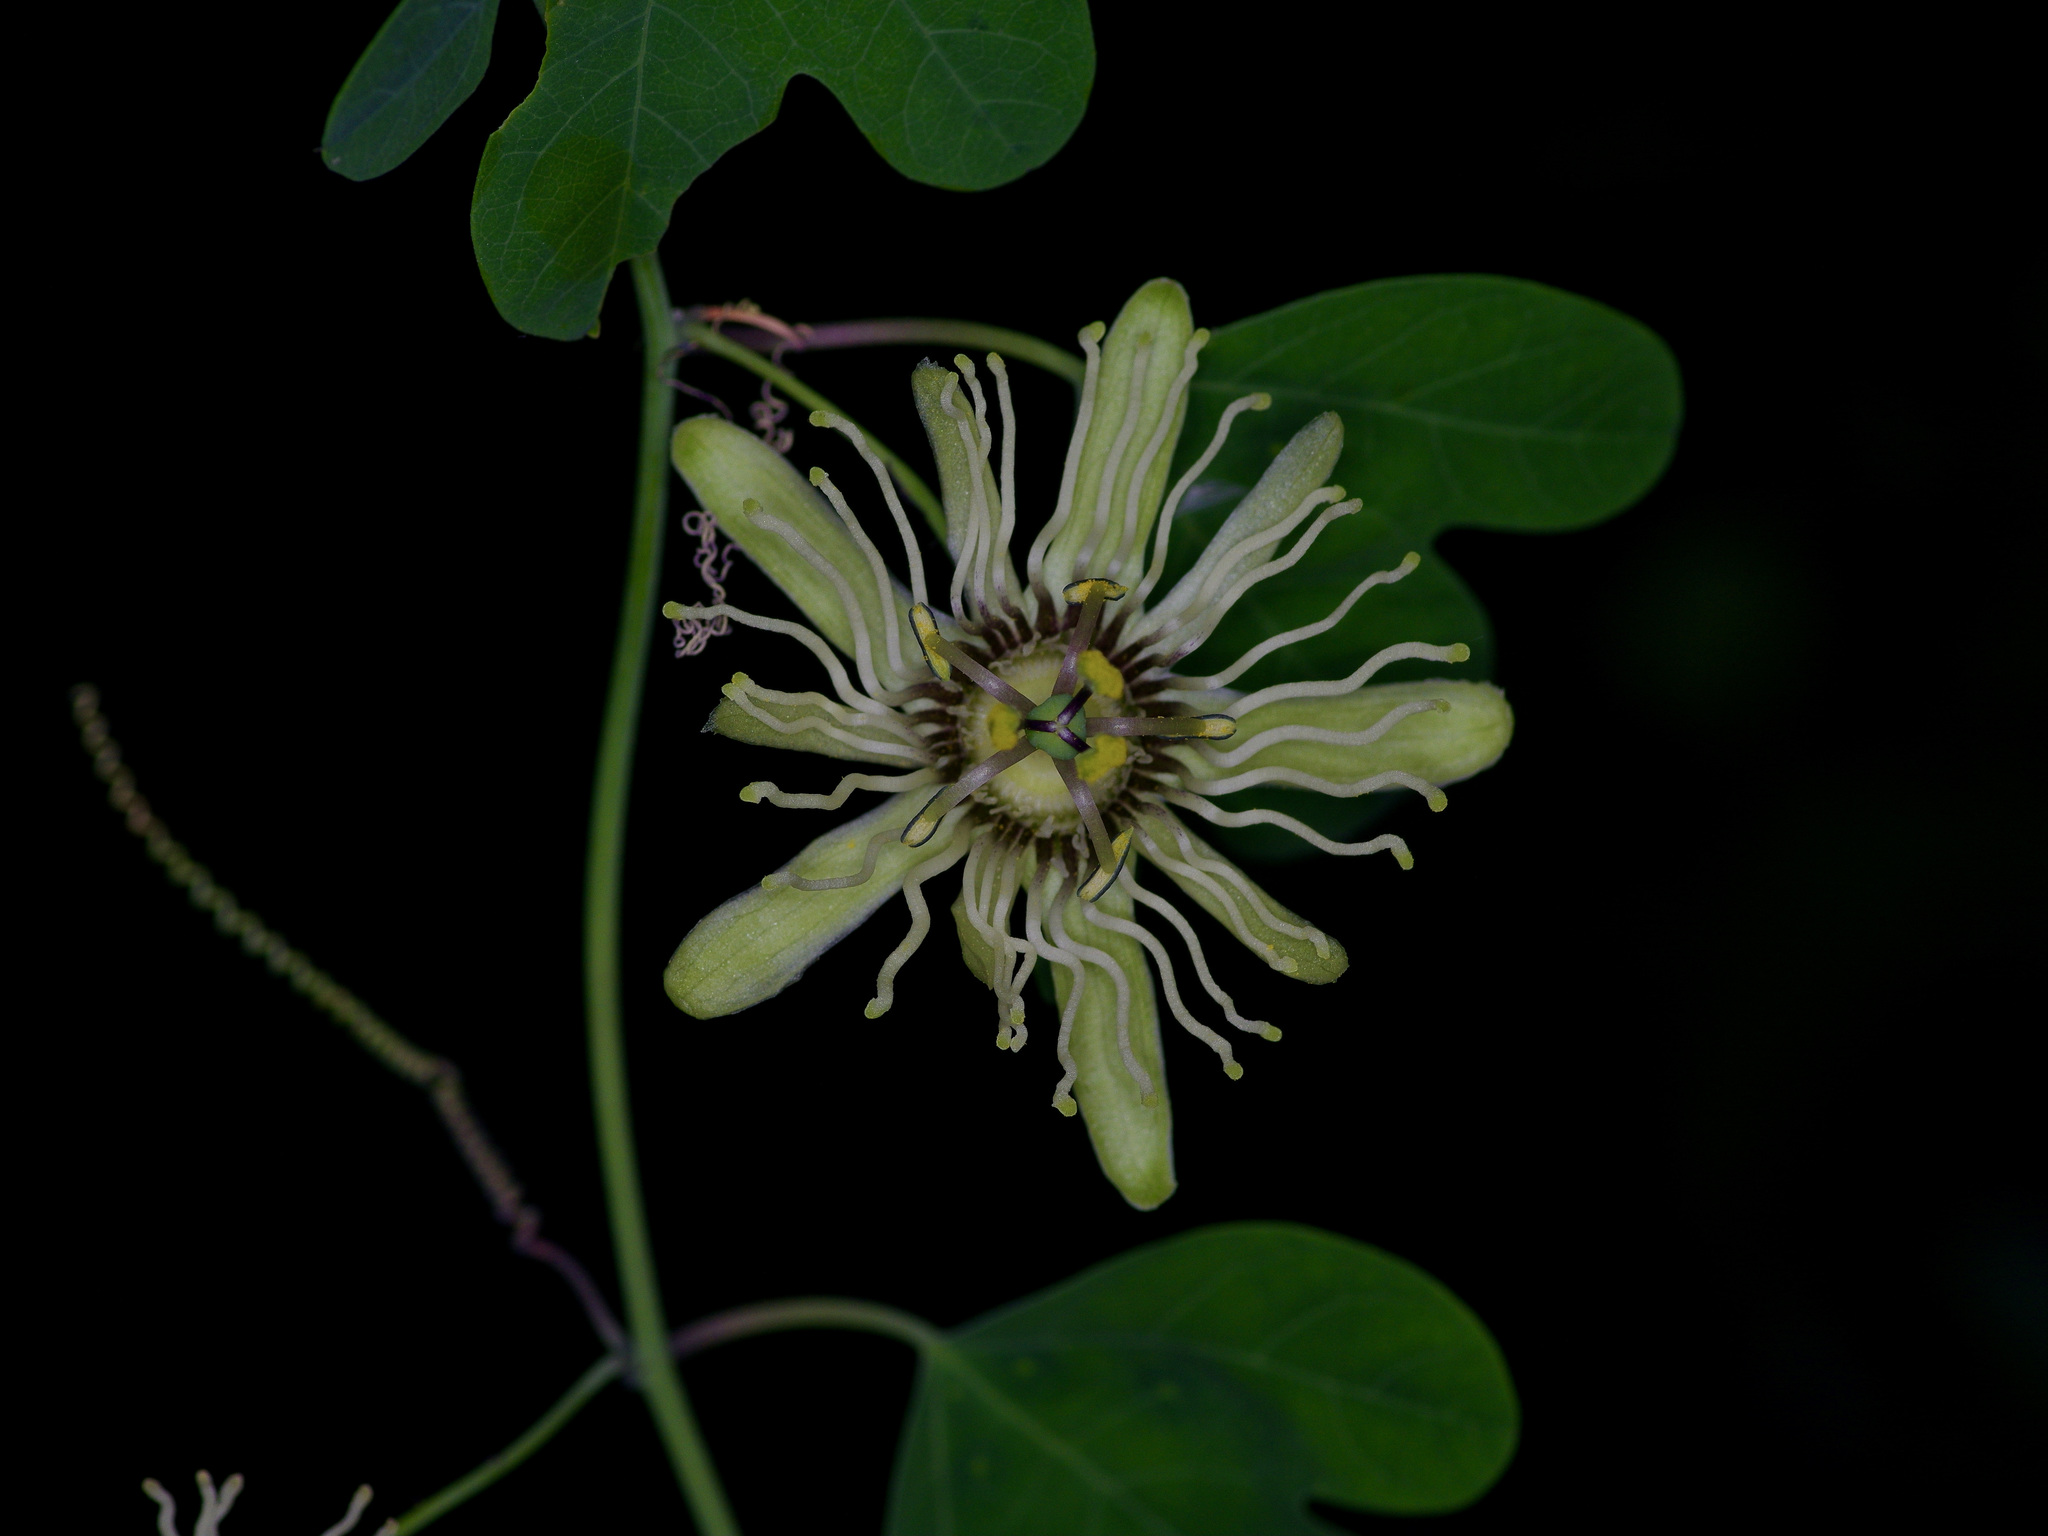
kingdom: Plantae
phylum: Tracheophyta
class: Magnoliopsida
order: Malpighiales
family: Passifloraceae
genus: Passiflora
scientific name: Passiflora affinis
